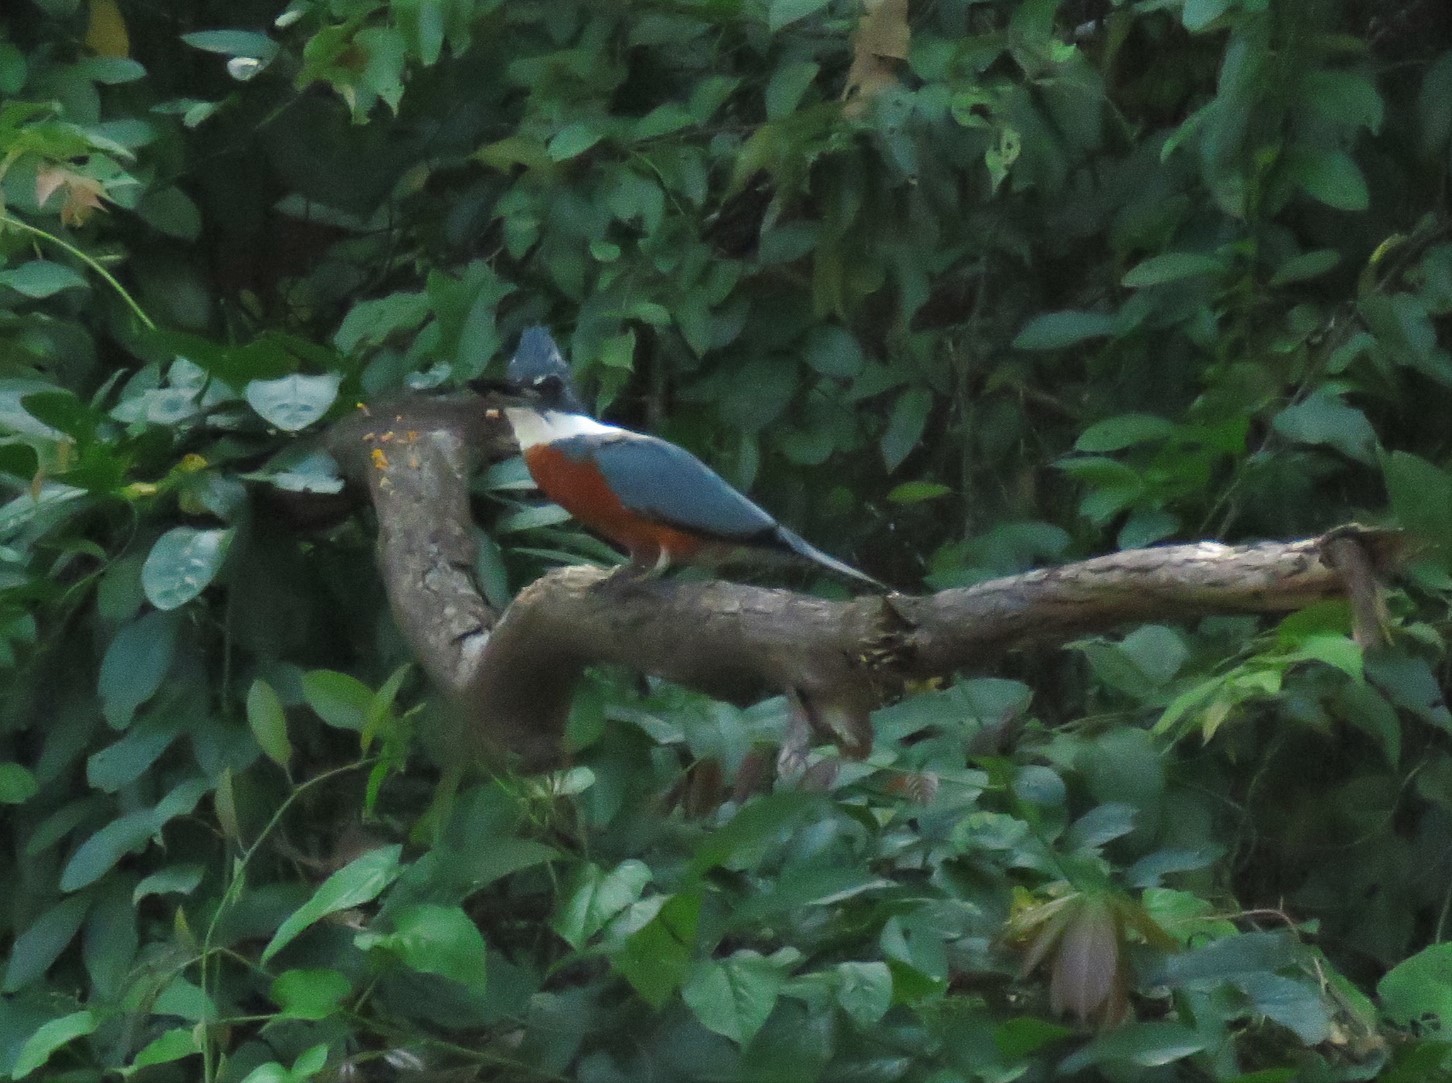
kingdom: Animalia
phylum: Chordata
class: Aves
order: Coraciiformes
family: Alcedinidae
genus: Megaceryle
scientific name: Megaceryle torquata
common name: Ringed kingfisher
